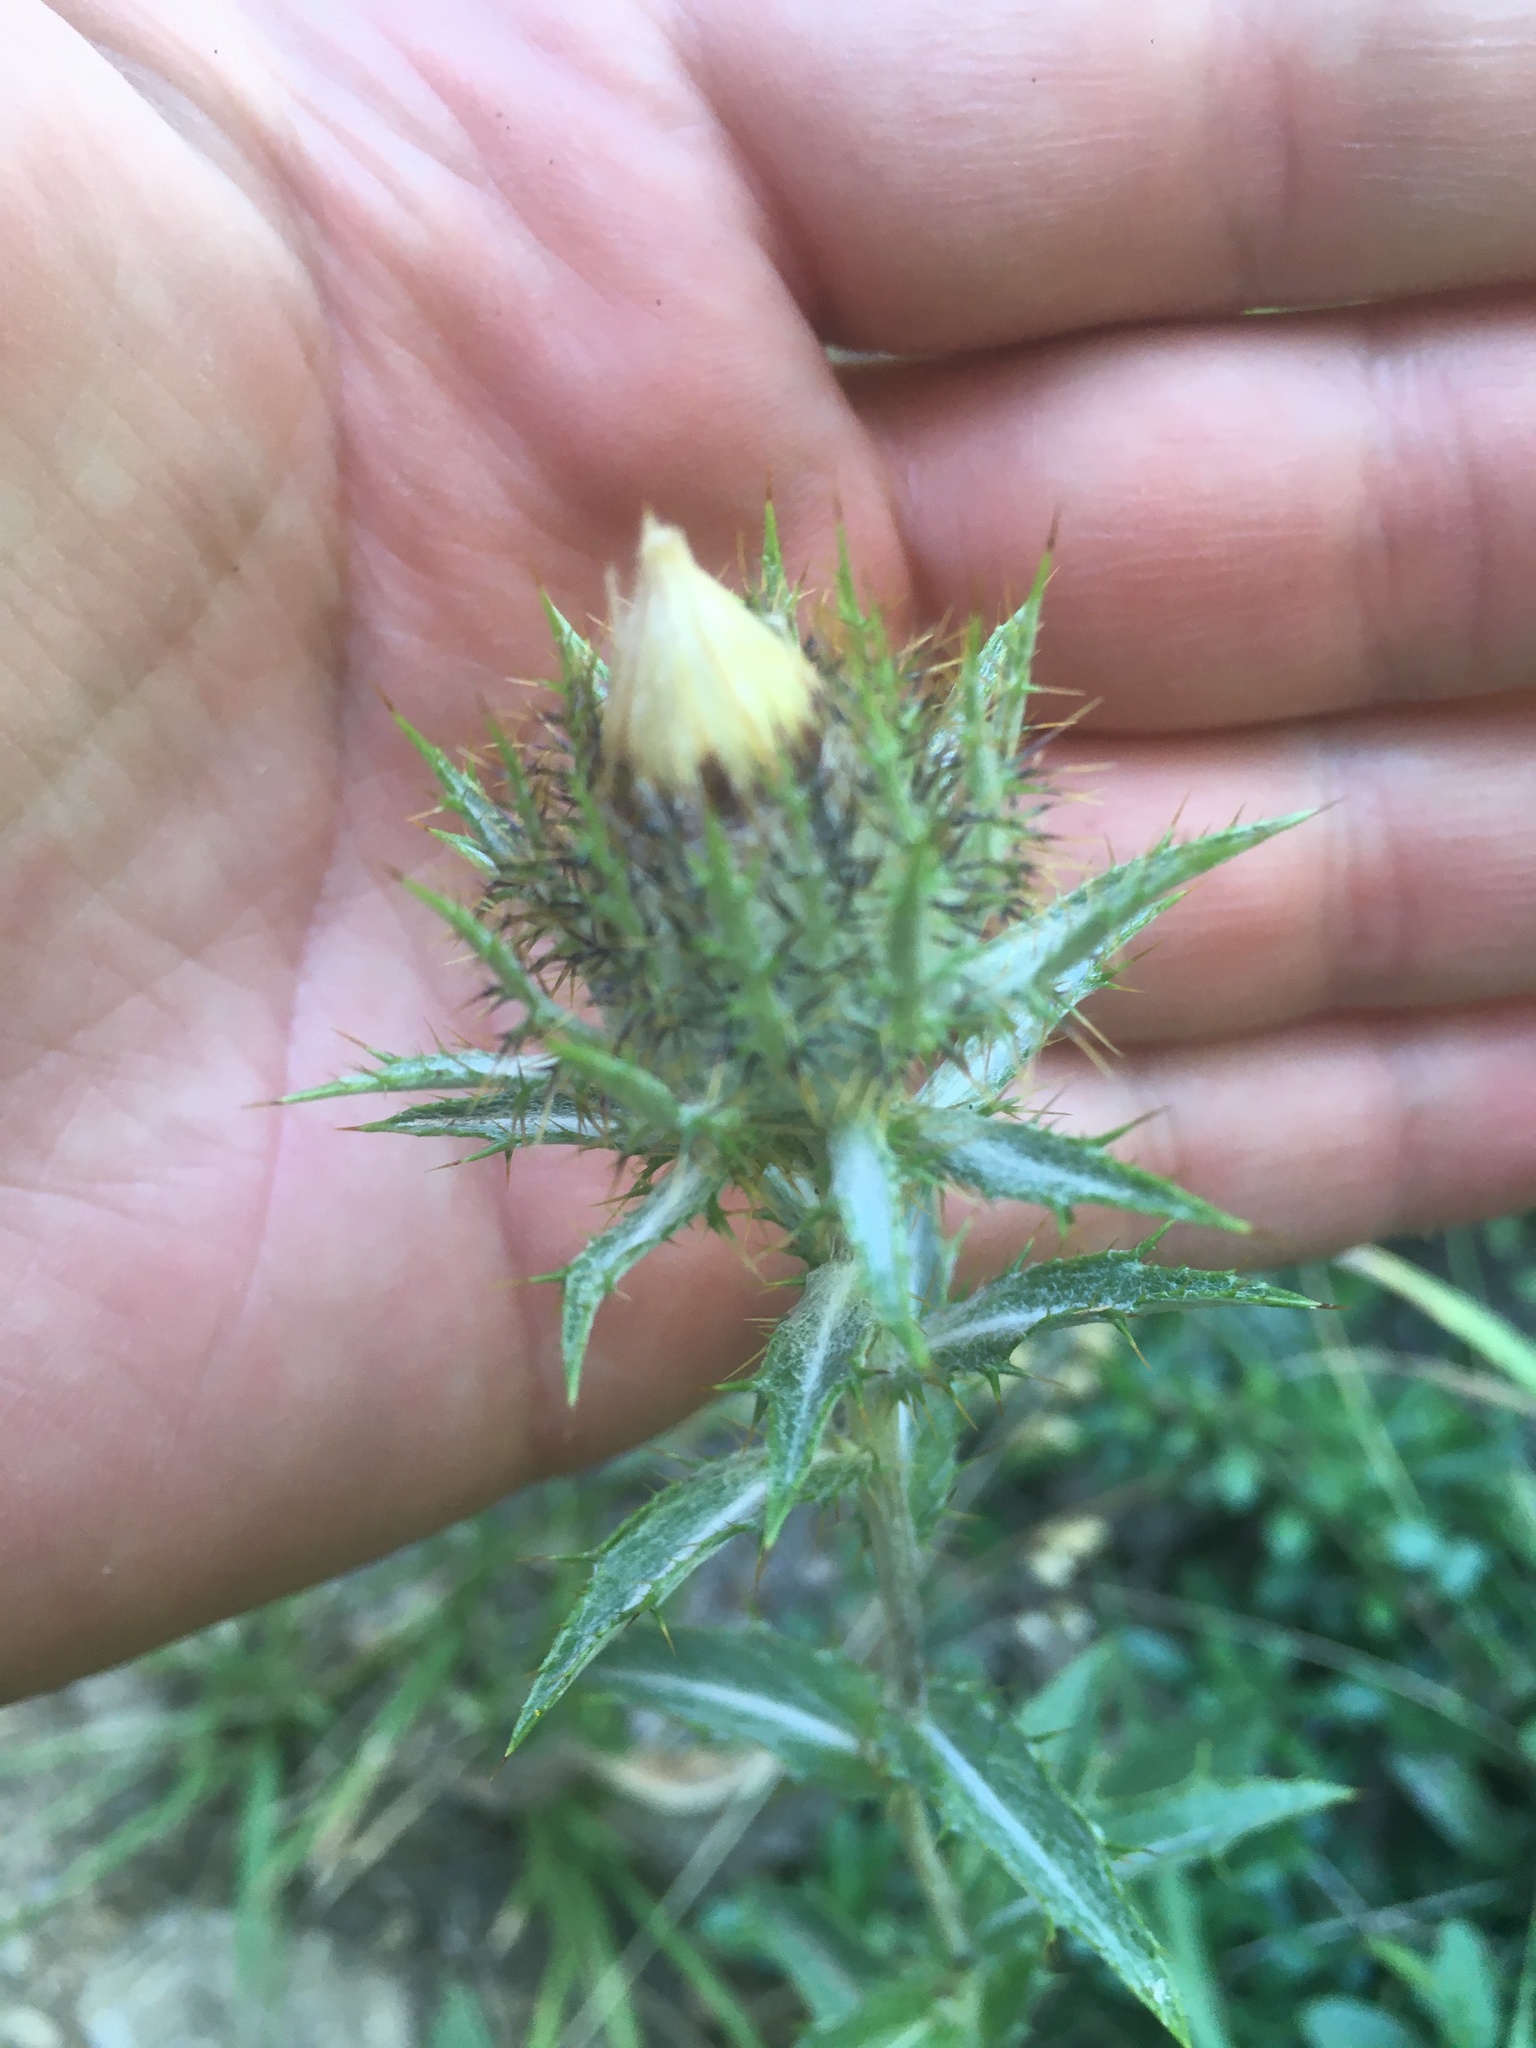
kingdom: Plantae
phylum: Tracheophyta
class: Magnoliopsida
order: Asterales
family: Asteraceae
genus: Carlina
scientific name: Carlina vulgaris
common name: Carline thistle
